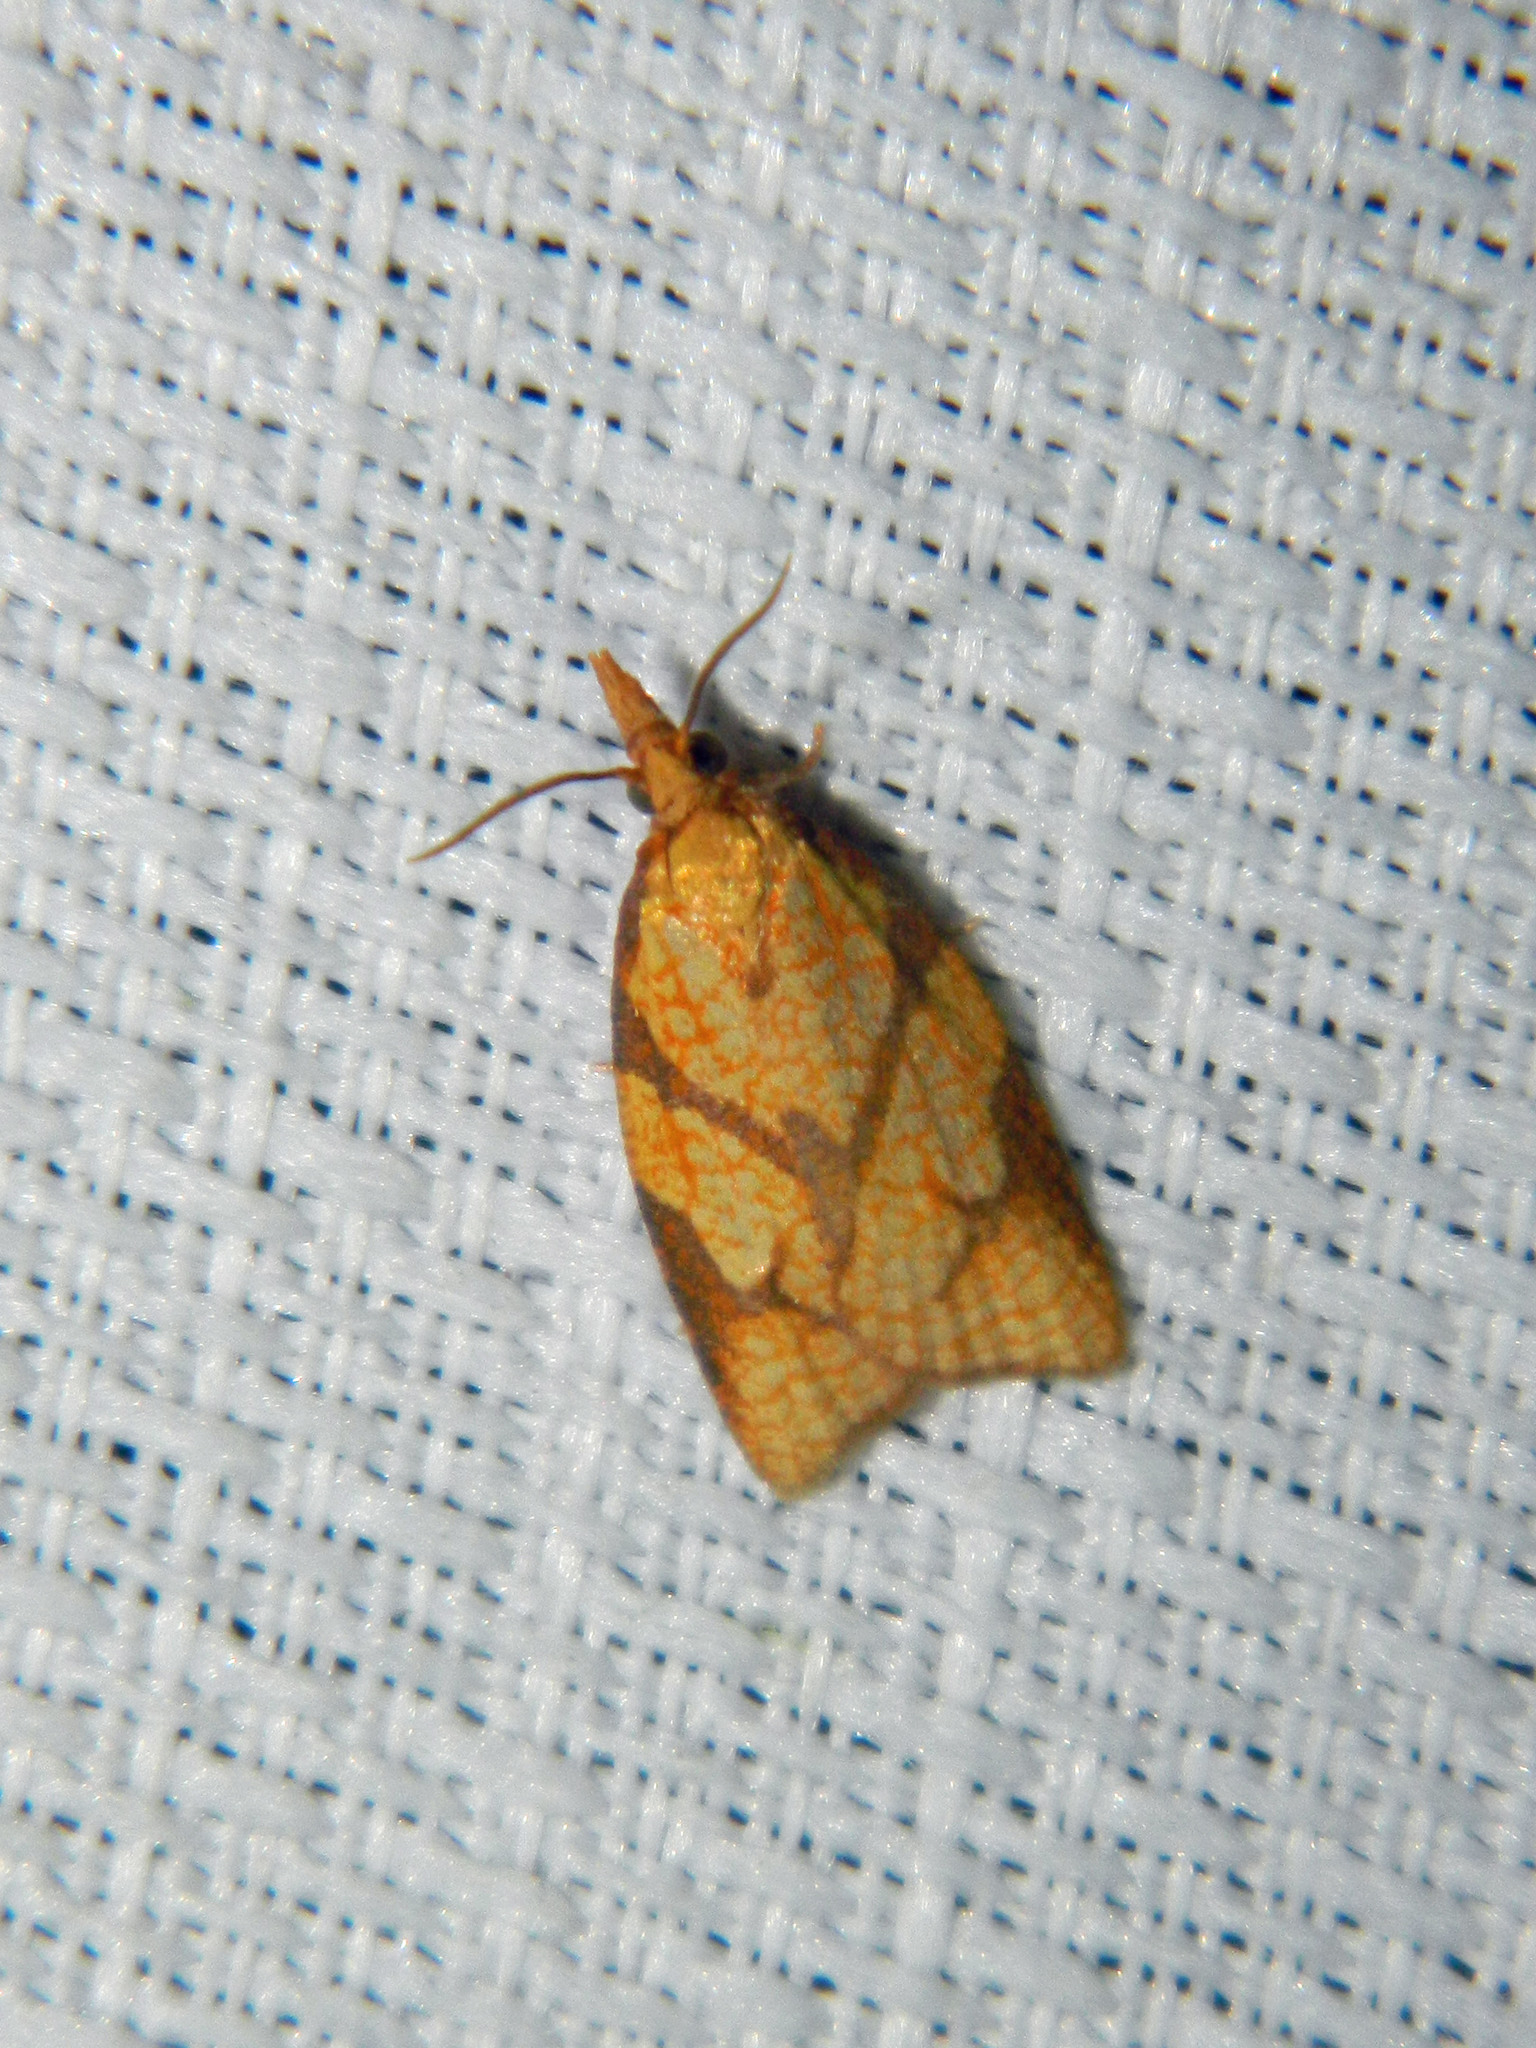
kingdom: Animalia
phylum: Arthropoda
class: Insecta
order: Lepidoptera
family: Tortricidae
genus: Cenopis
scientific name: Cenopis reticulatana
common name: Reticulated fruitworm moth
